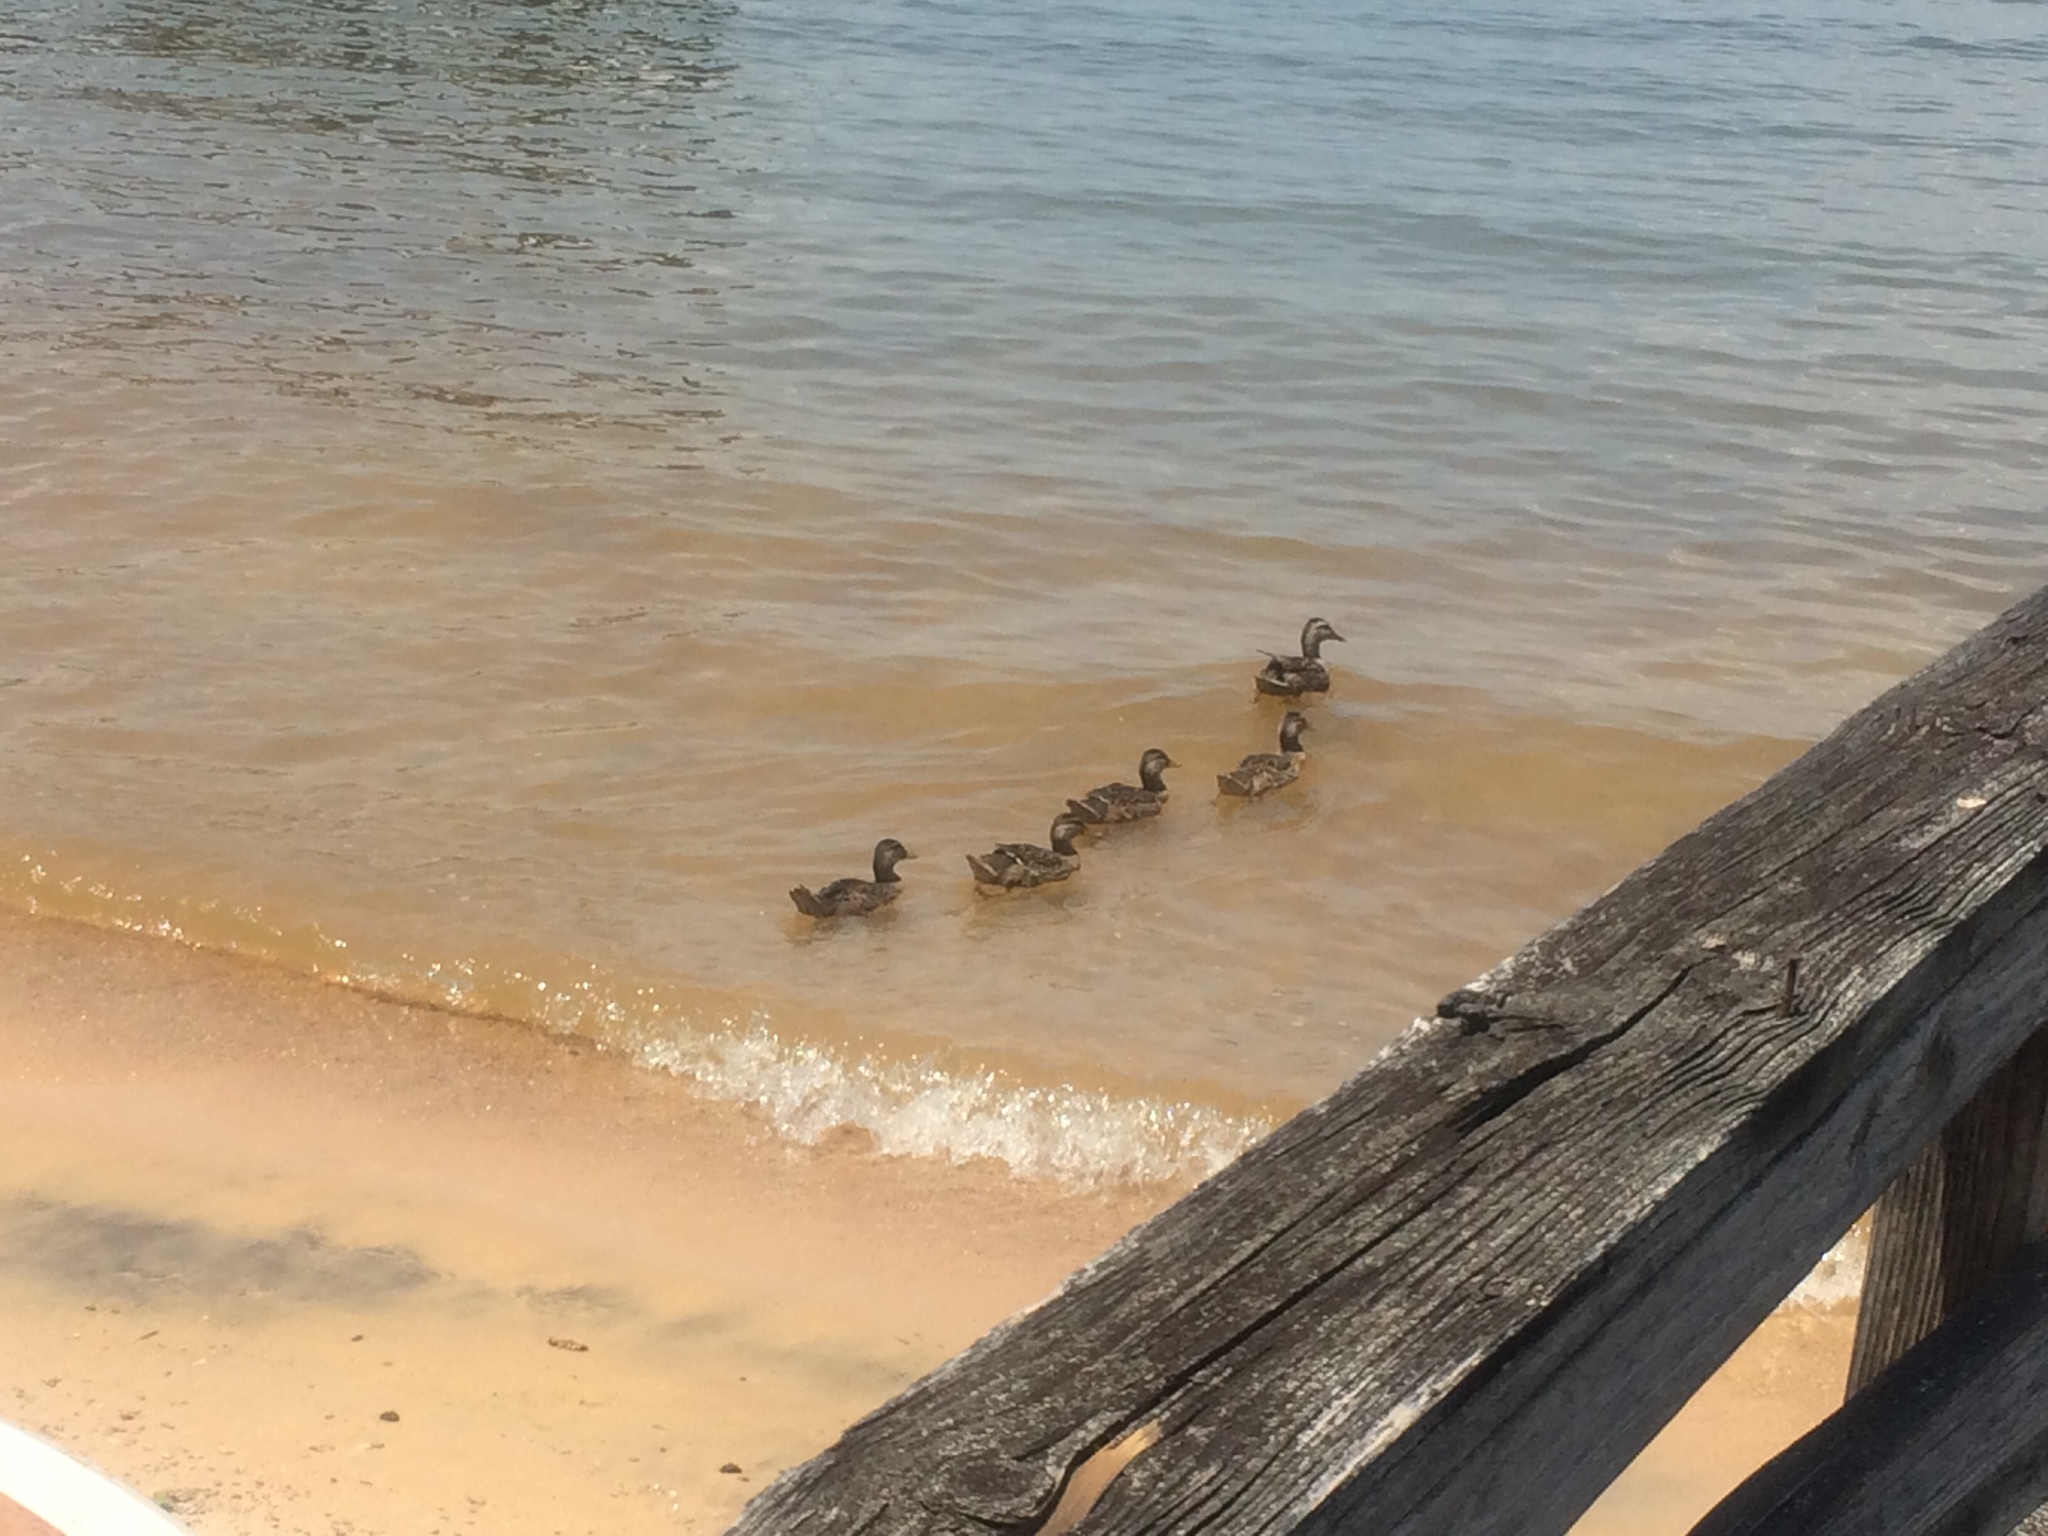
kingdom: Animalia
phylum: Chordata
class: Aves
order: Anseriformes
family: Anatidae
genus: Anas
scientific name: Anas platyrhynchos
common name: Mallard
